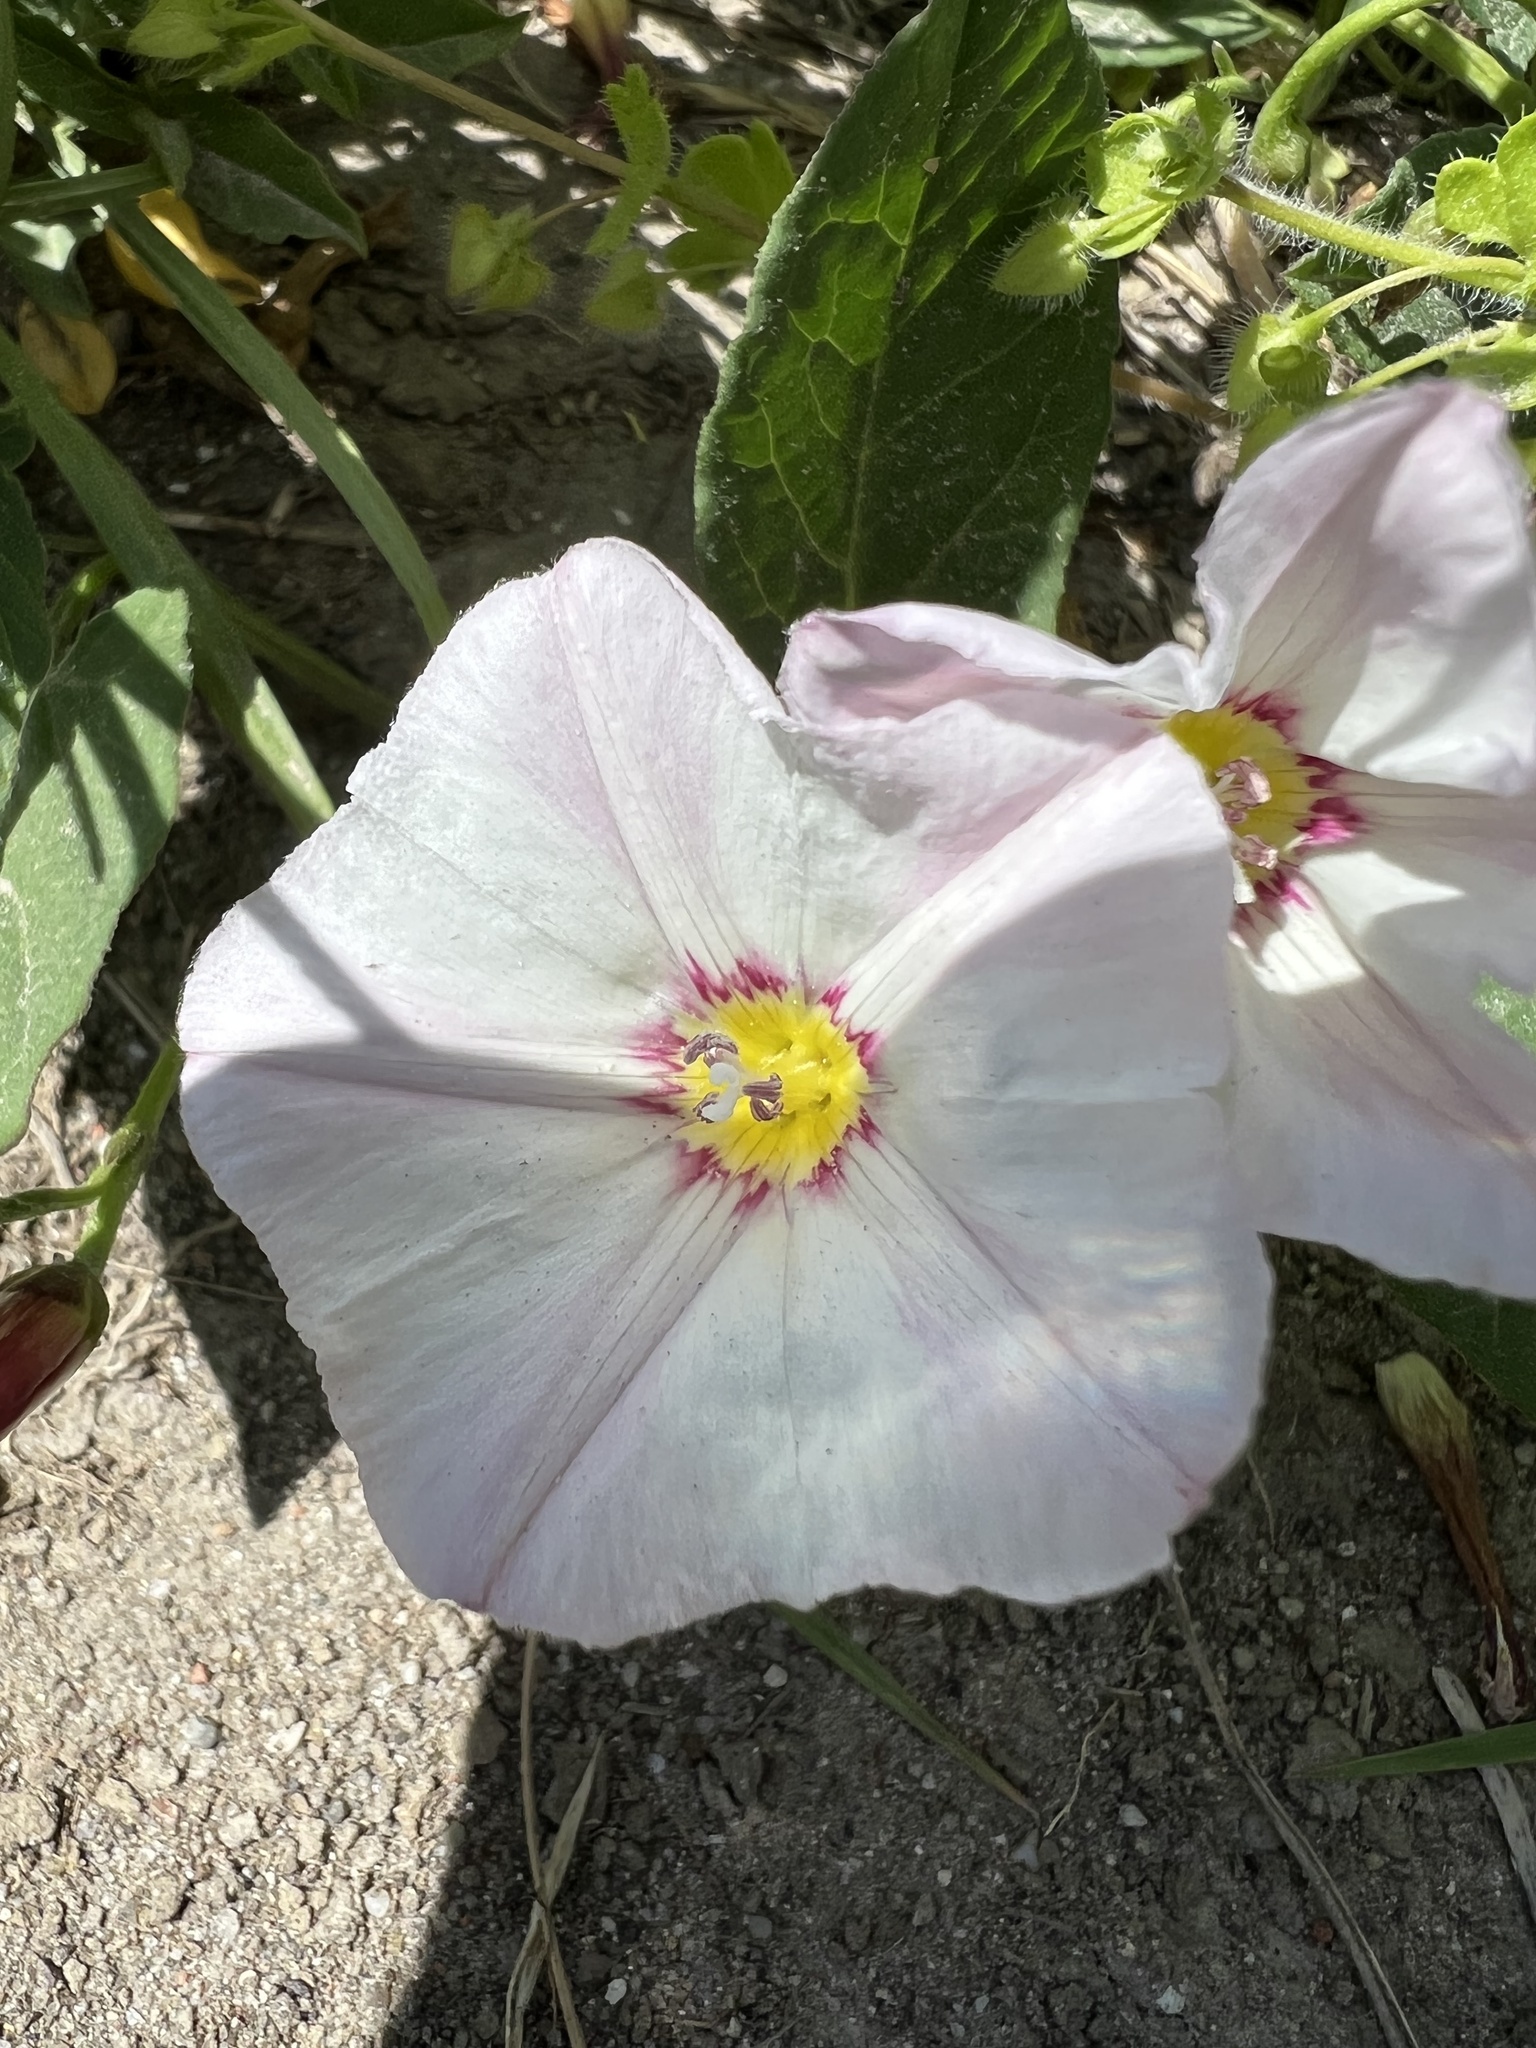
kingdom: Plantae
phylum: Tracheophyta
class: Magnoliopsida
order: Solanales
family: Convolvulaceae
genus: Convolvulus
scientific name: Convolvulus arvensis
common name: Field bindweed
